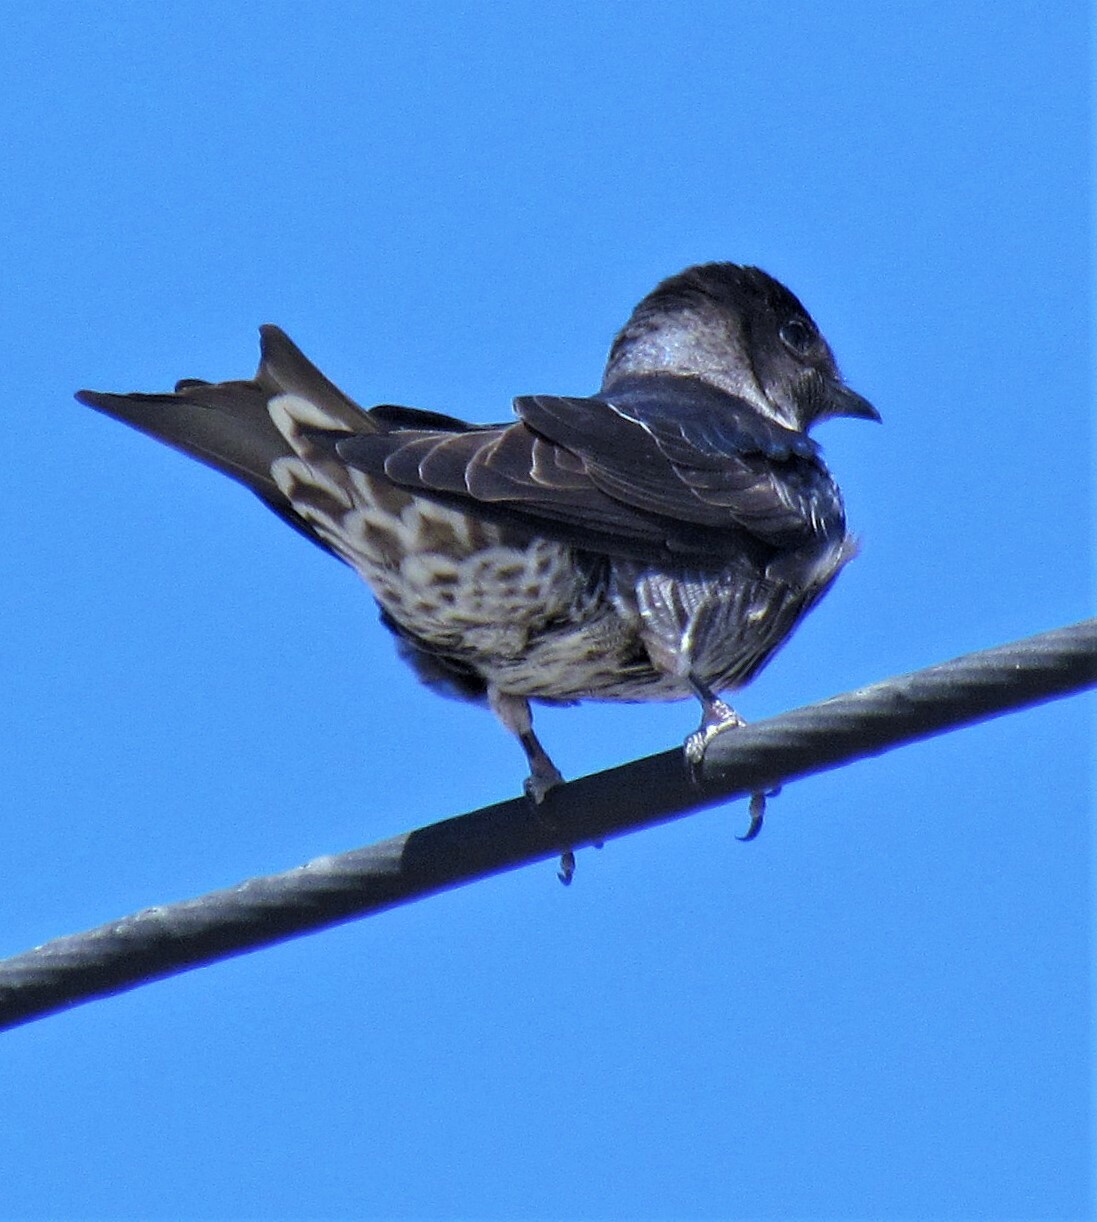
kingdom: Animalia
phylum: Chordata
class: Aves
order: Passeriformes
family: Hirundinidae
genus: Progne
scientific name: Progne elegans
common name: Southern martin
